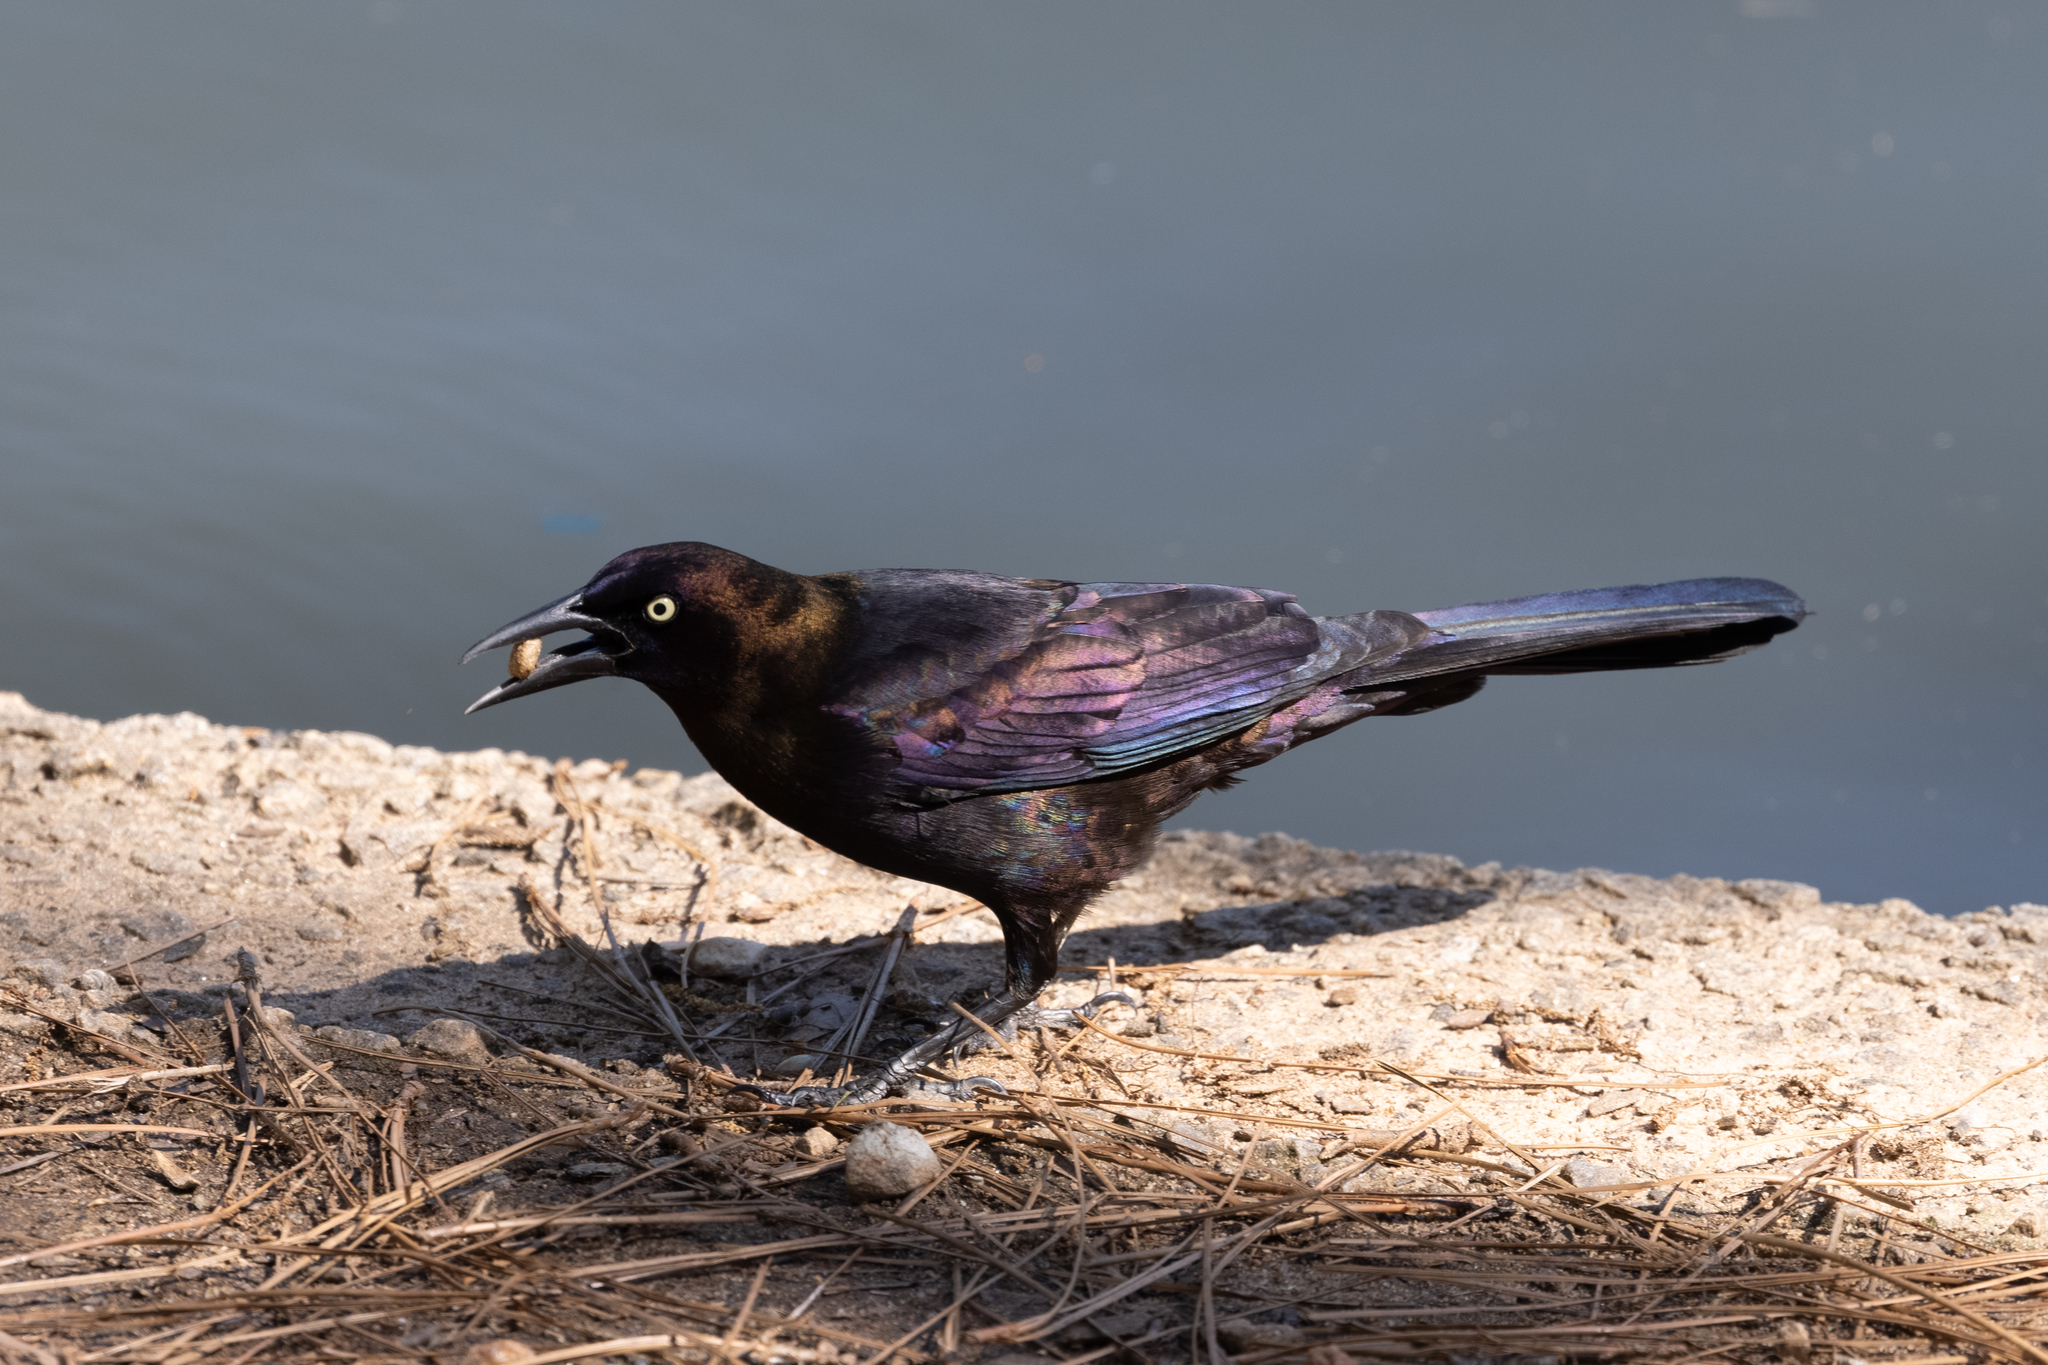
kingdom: Animalia
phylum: Chordata
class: Aves
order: Passeriformes
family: Icteridae
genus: Quiscalus
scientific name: Quiscalus quiscula
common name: Common grackle
